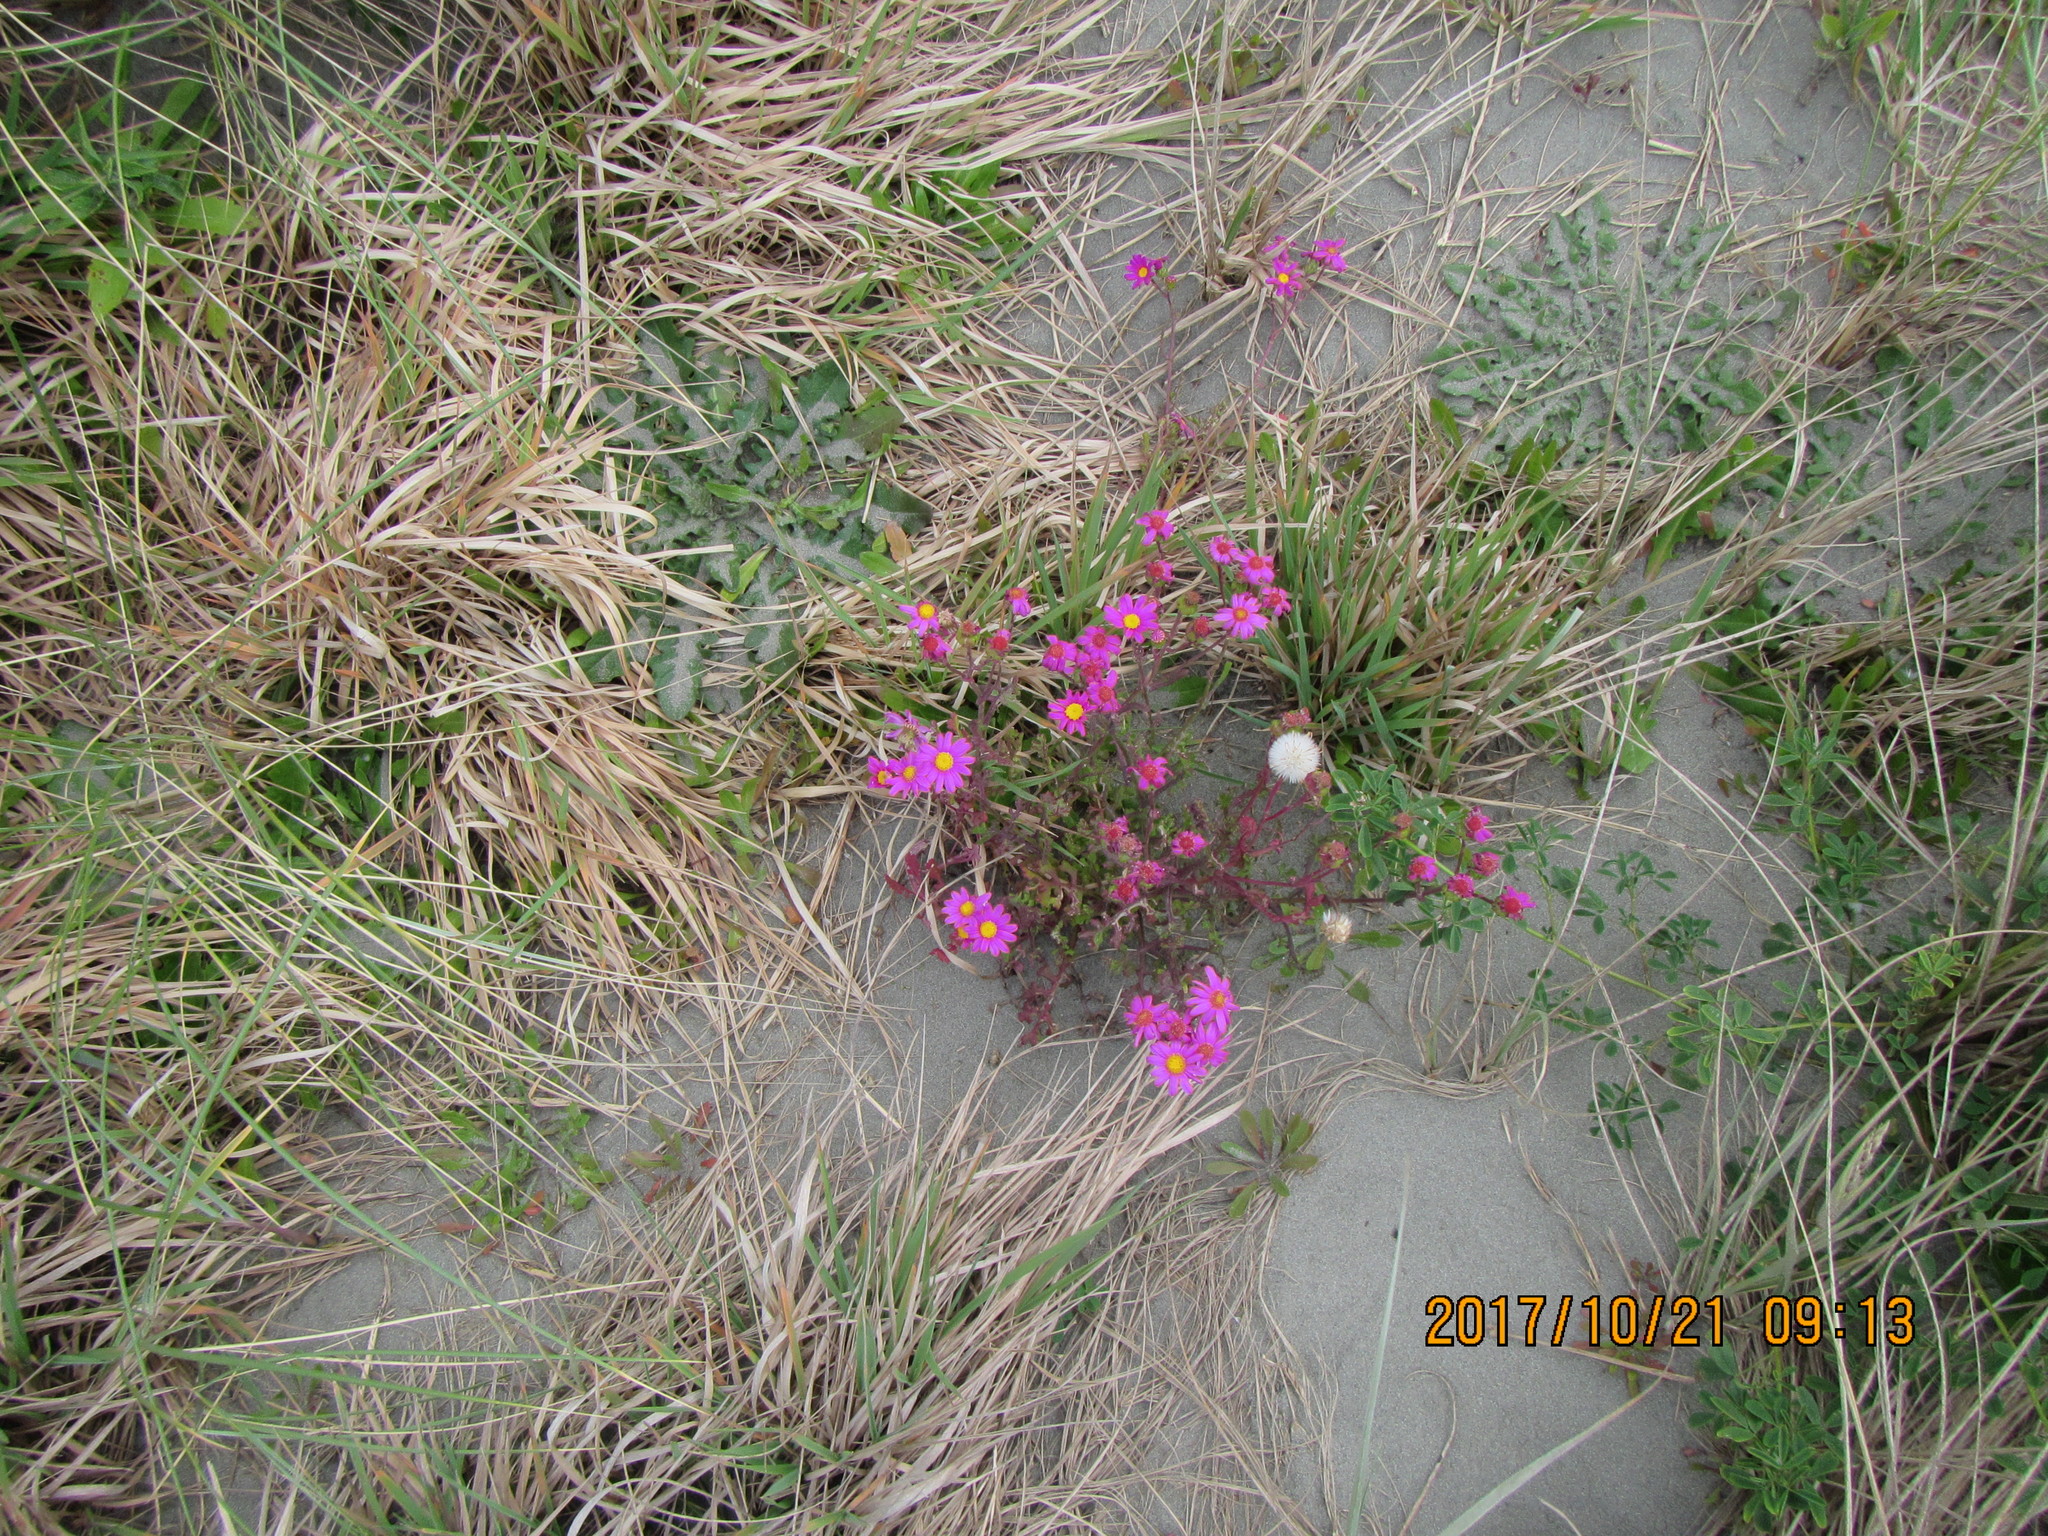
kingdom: Plantae
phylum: Tracheophyta
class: Magnoliopsida
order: Asterales
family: Asteraceae
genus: Senecio
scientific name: Senecio elegans
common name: Purple groundsel
